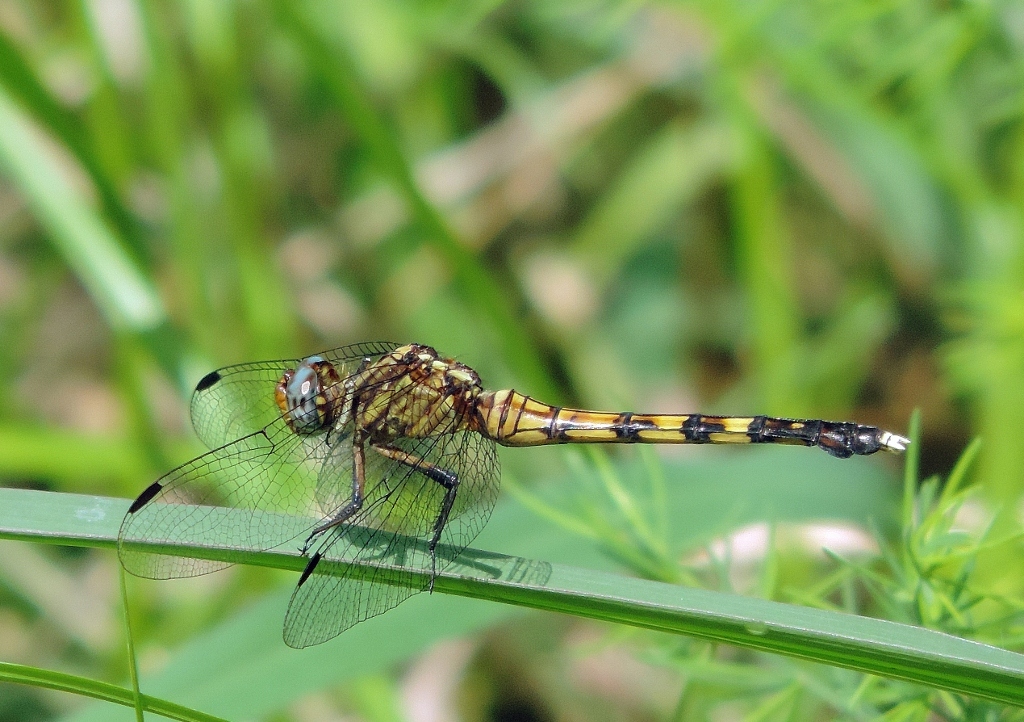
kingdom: Animalia
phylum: Arthropoda
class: Insecta
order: Odonata
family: Libellulidae
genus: Orthetrum
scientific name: Orthetrum julia
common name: Julia skimmer
